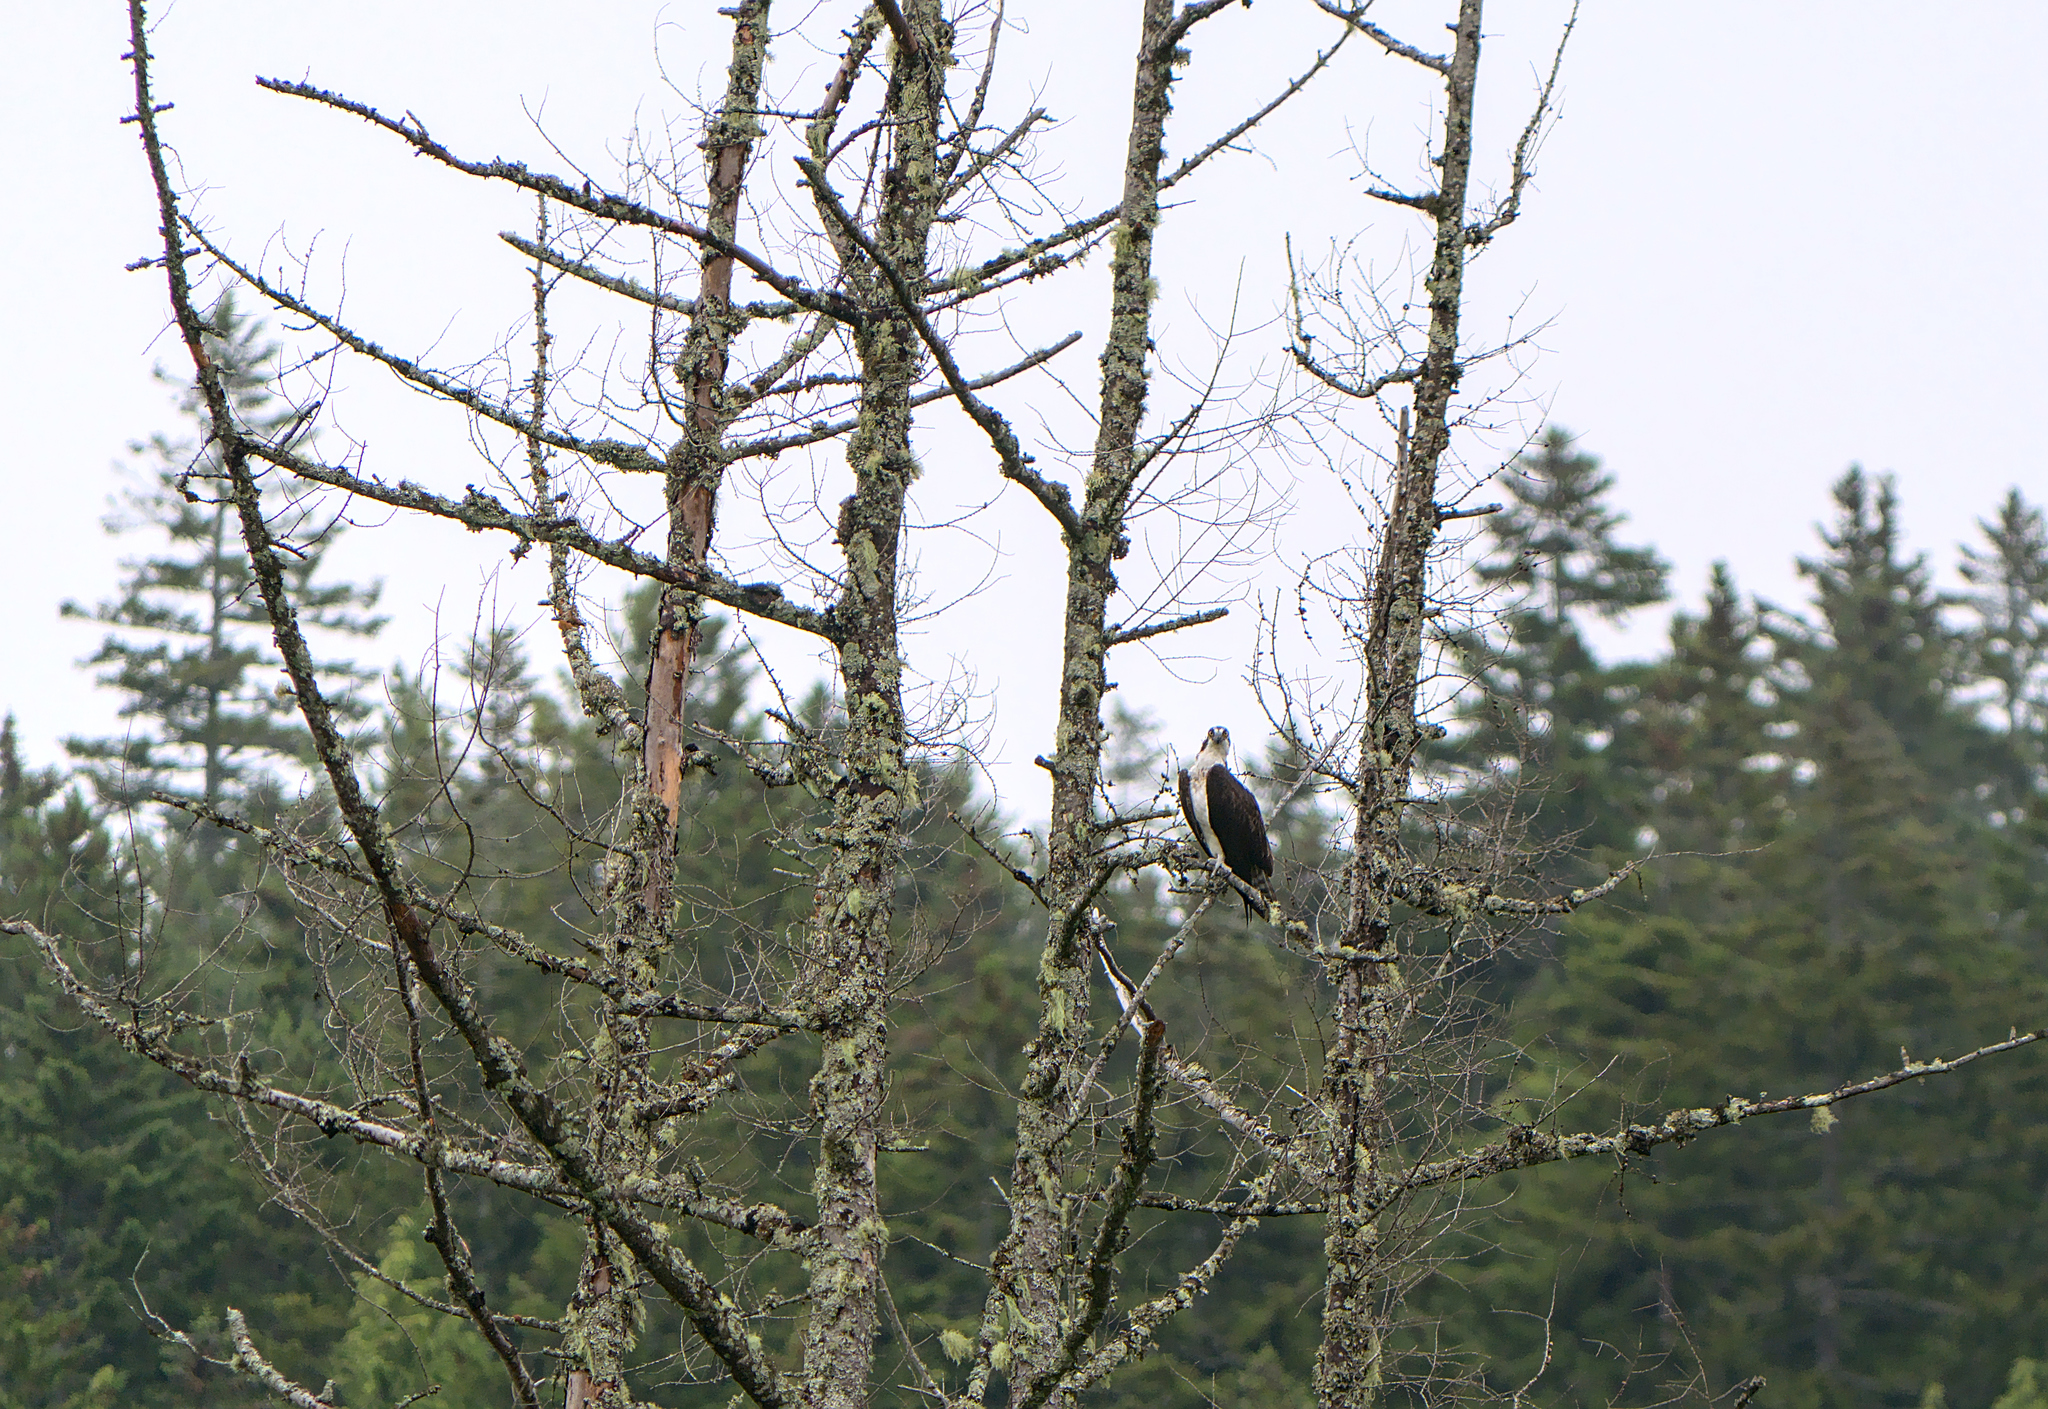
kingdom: Animalia
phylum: Chordata
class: Aves
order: Accipitriformes
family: Pandionidae
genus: Pandion
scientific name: Pandion haliaetus
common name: Osprey
